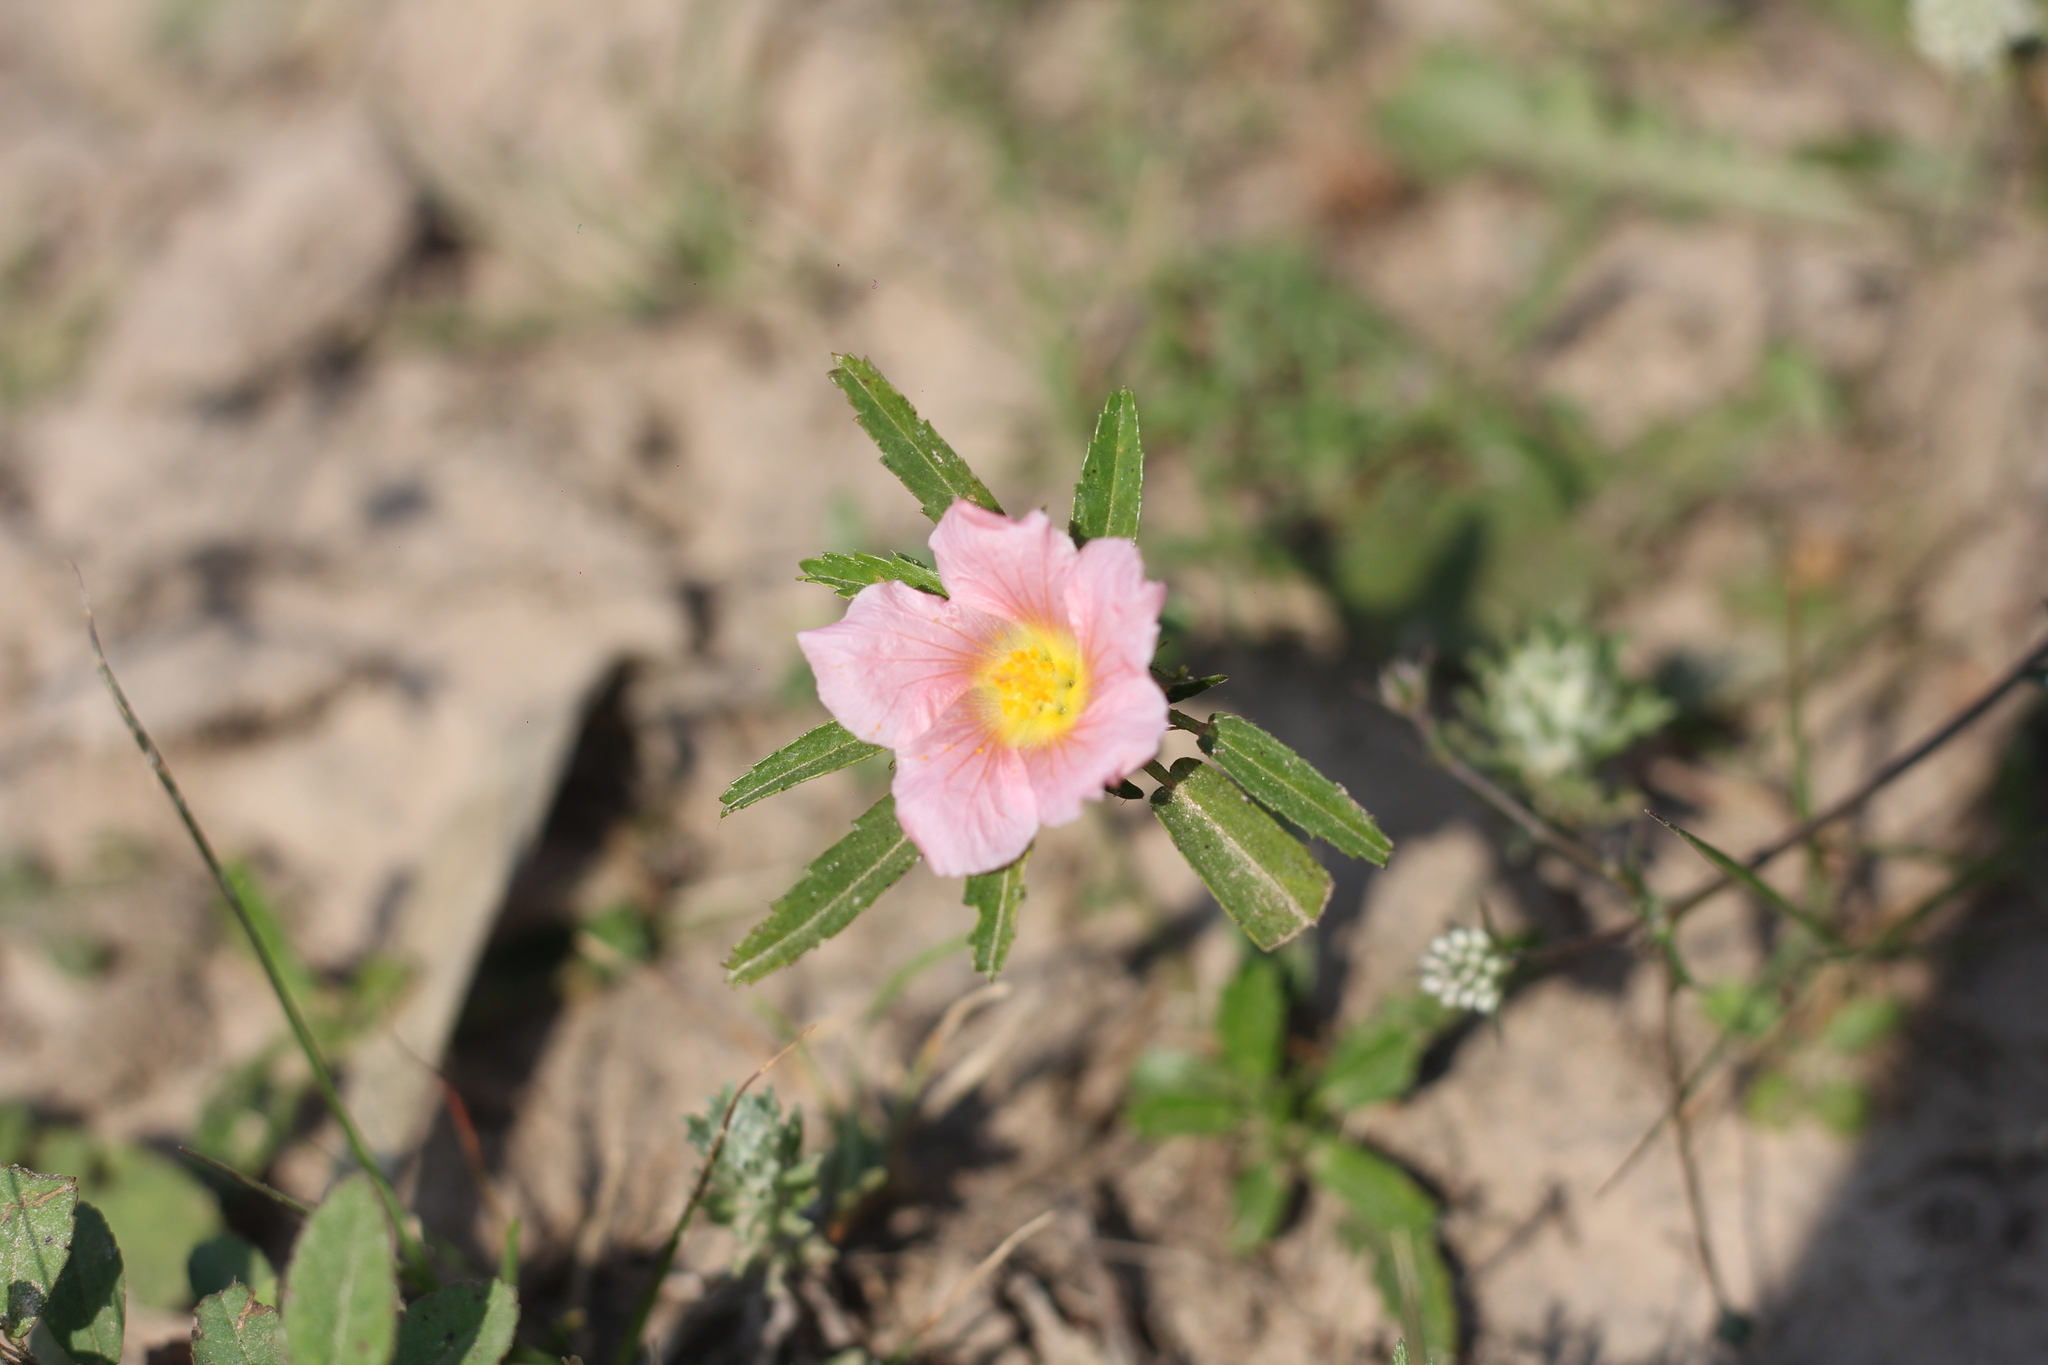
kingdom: Plantae
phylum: Tracheophyta
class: Magnoliopsida
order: Malvales
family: Malvaceae
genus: Sida
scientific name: Sida anomala
